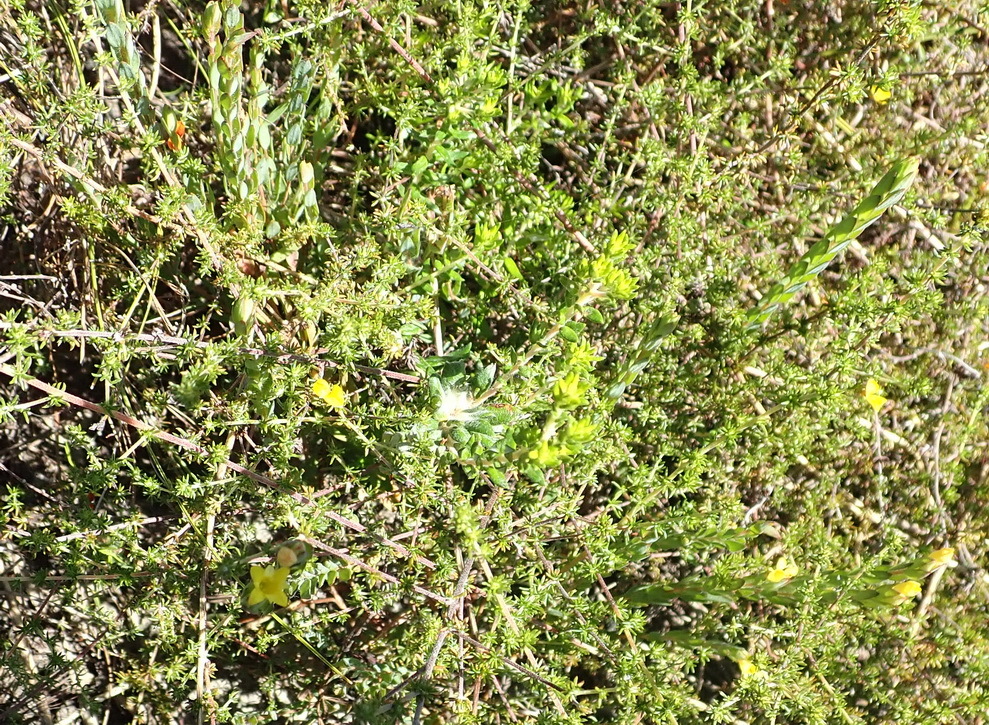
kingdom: Plantae
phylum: Tracheophyta
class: Magnoliopsida
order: Malvales
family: Thymelaeaceae
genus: Gnidia
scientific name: Gnidia juniperifolia
